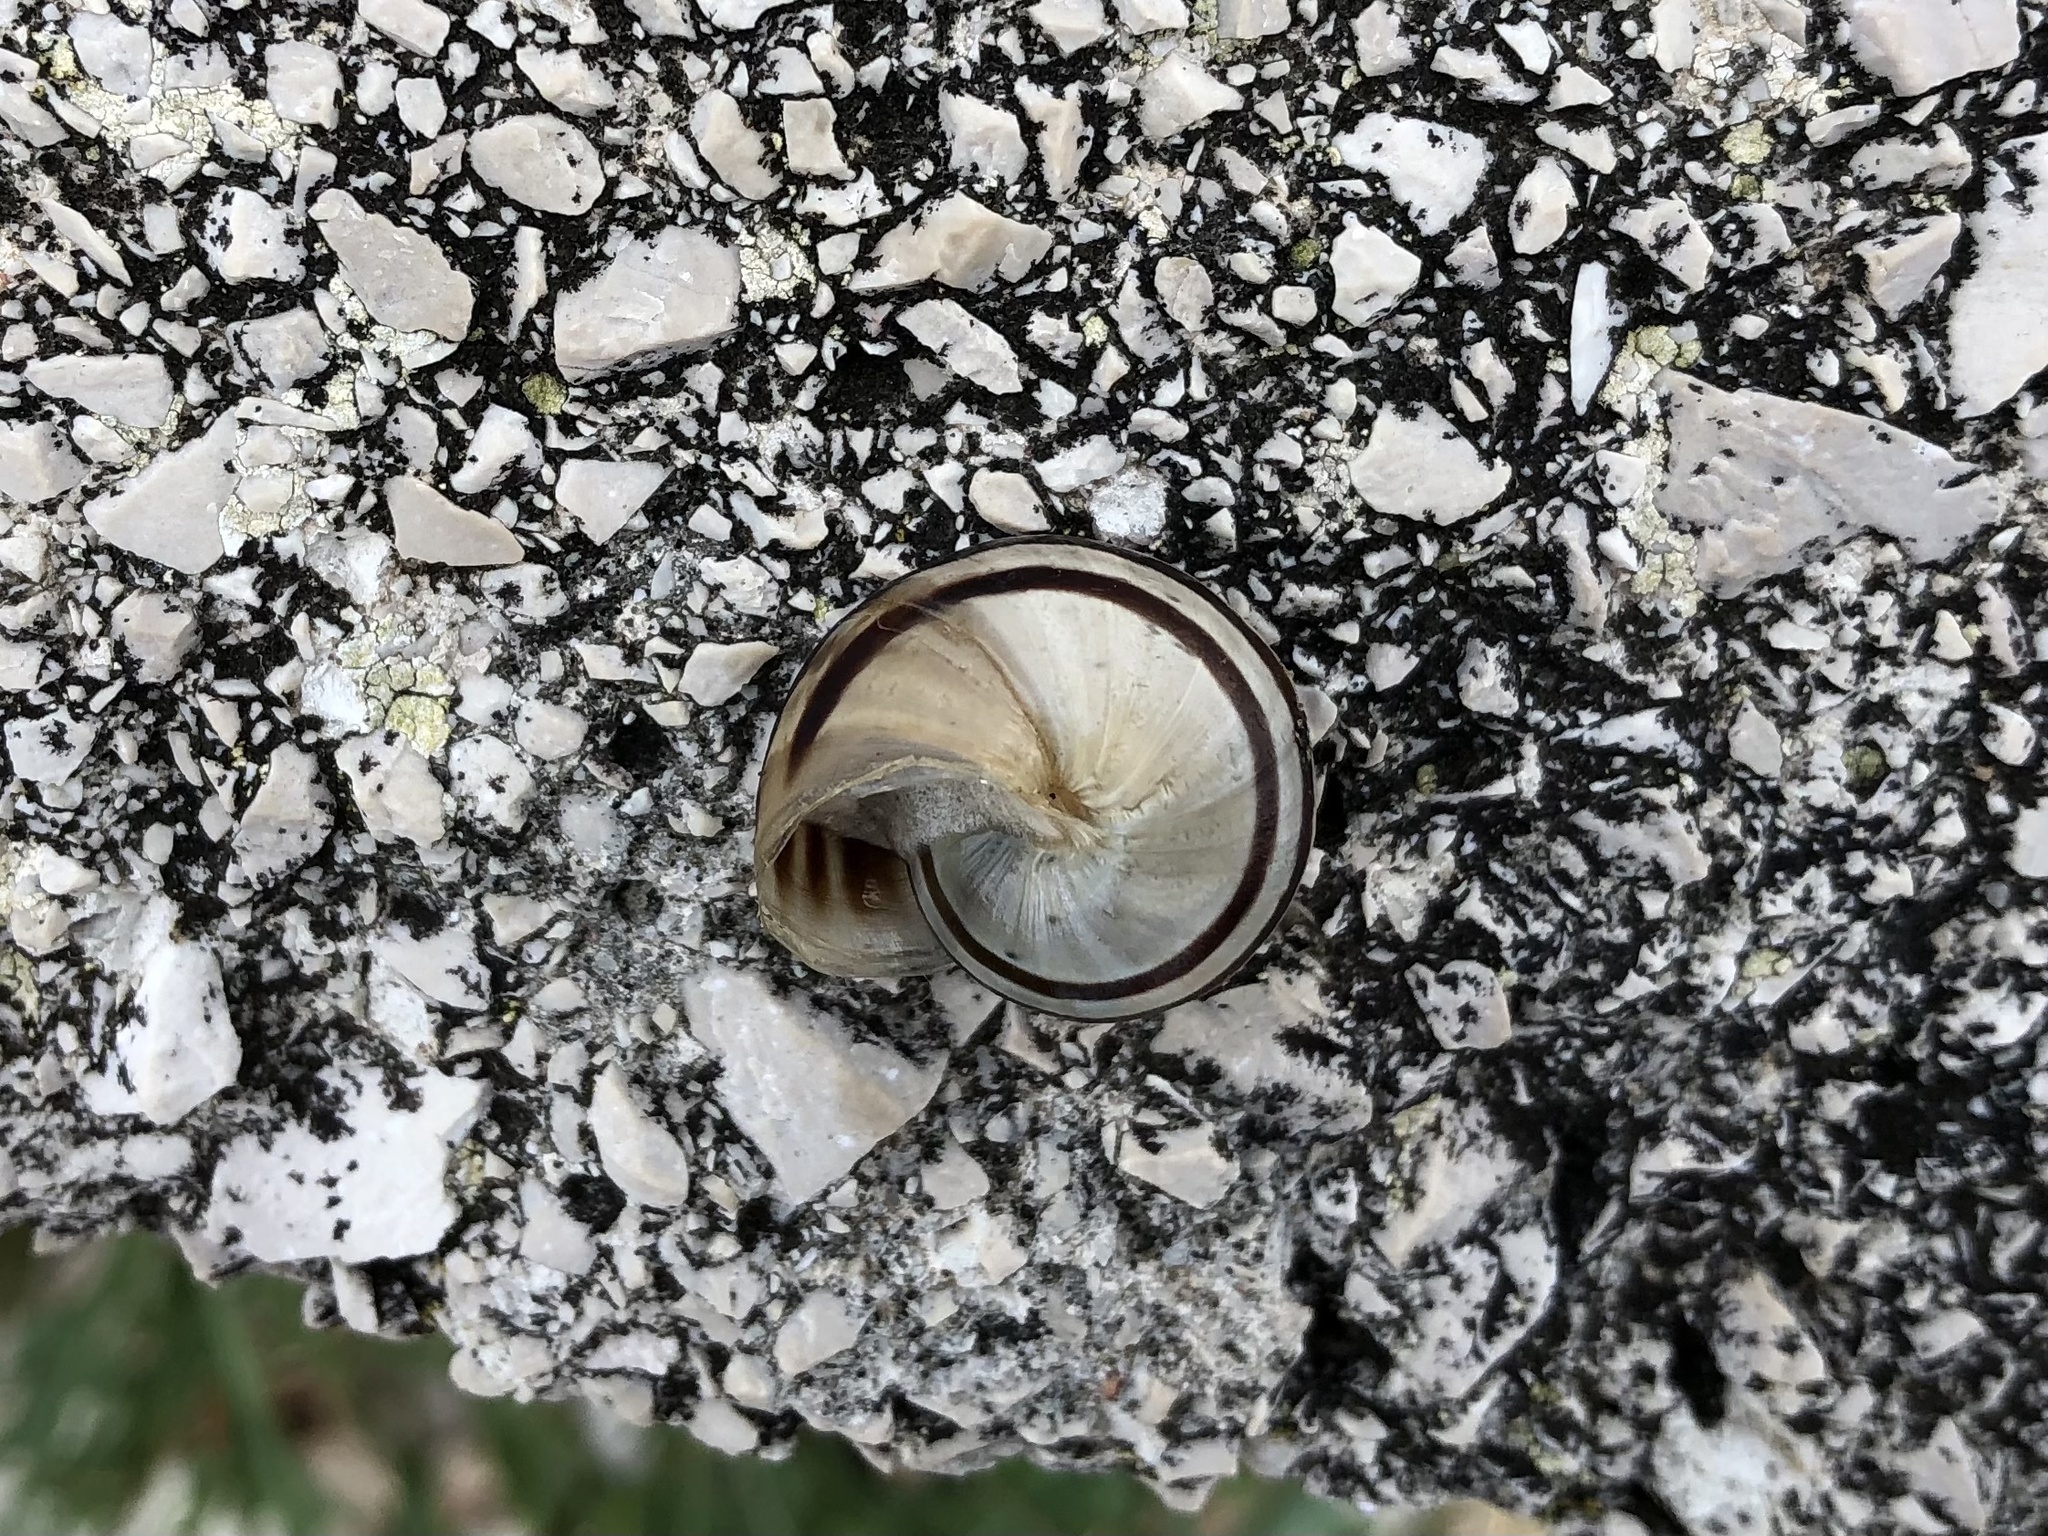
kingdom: Animalia
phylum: Mollusca
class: Gastropoda
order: Stylommatophora
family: Helicidae
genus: Eobania
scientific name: Eobania vermiculata
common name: Chocolateband snail
